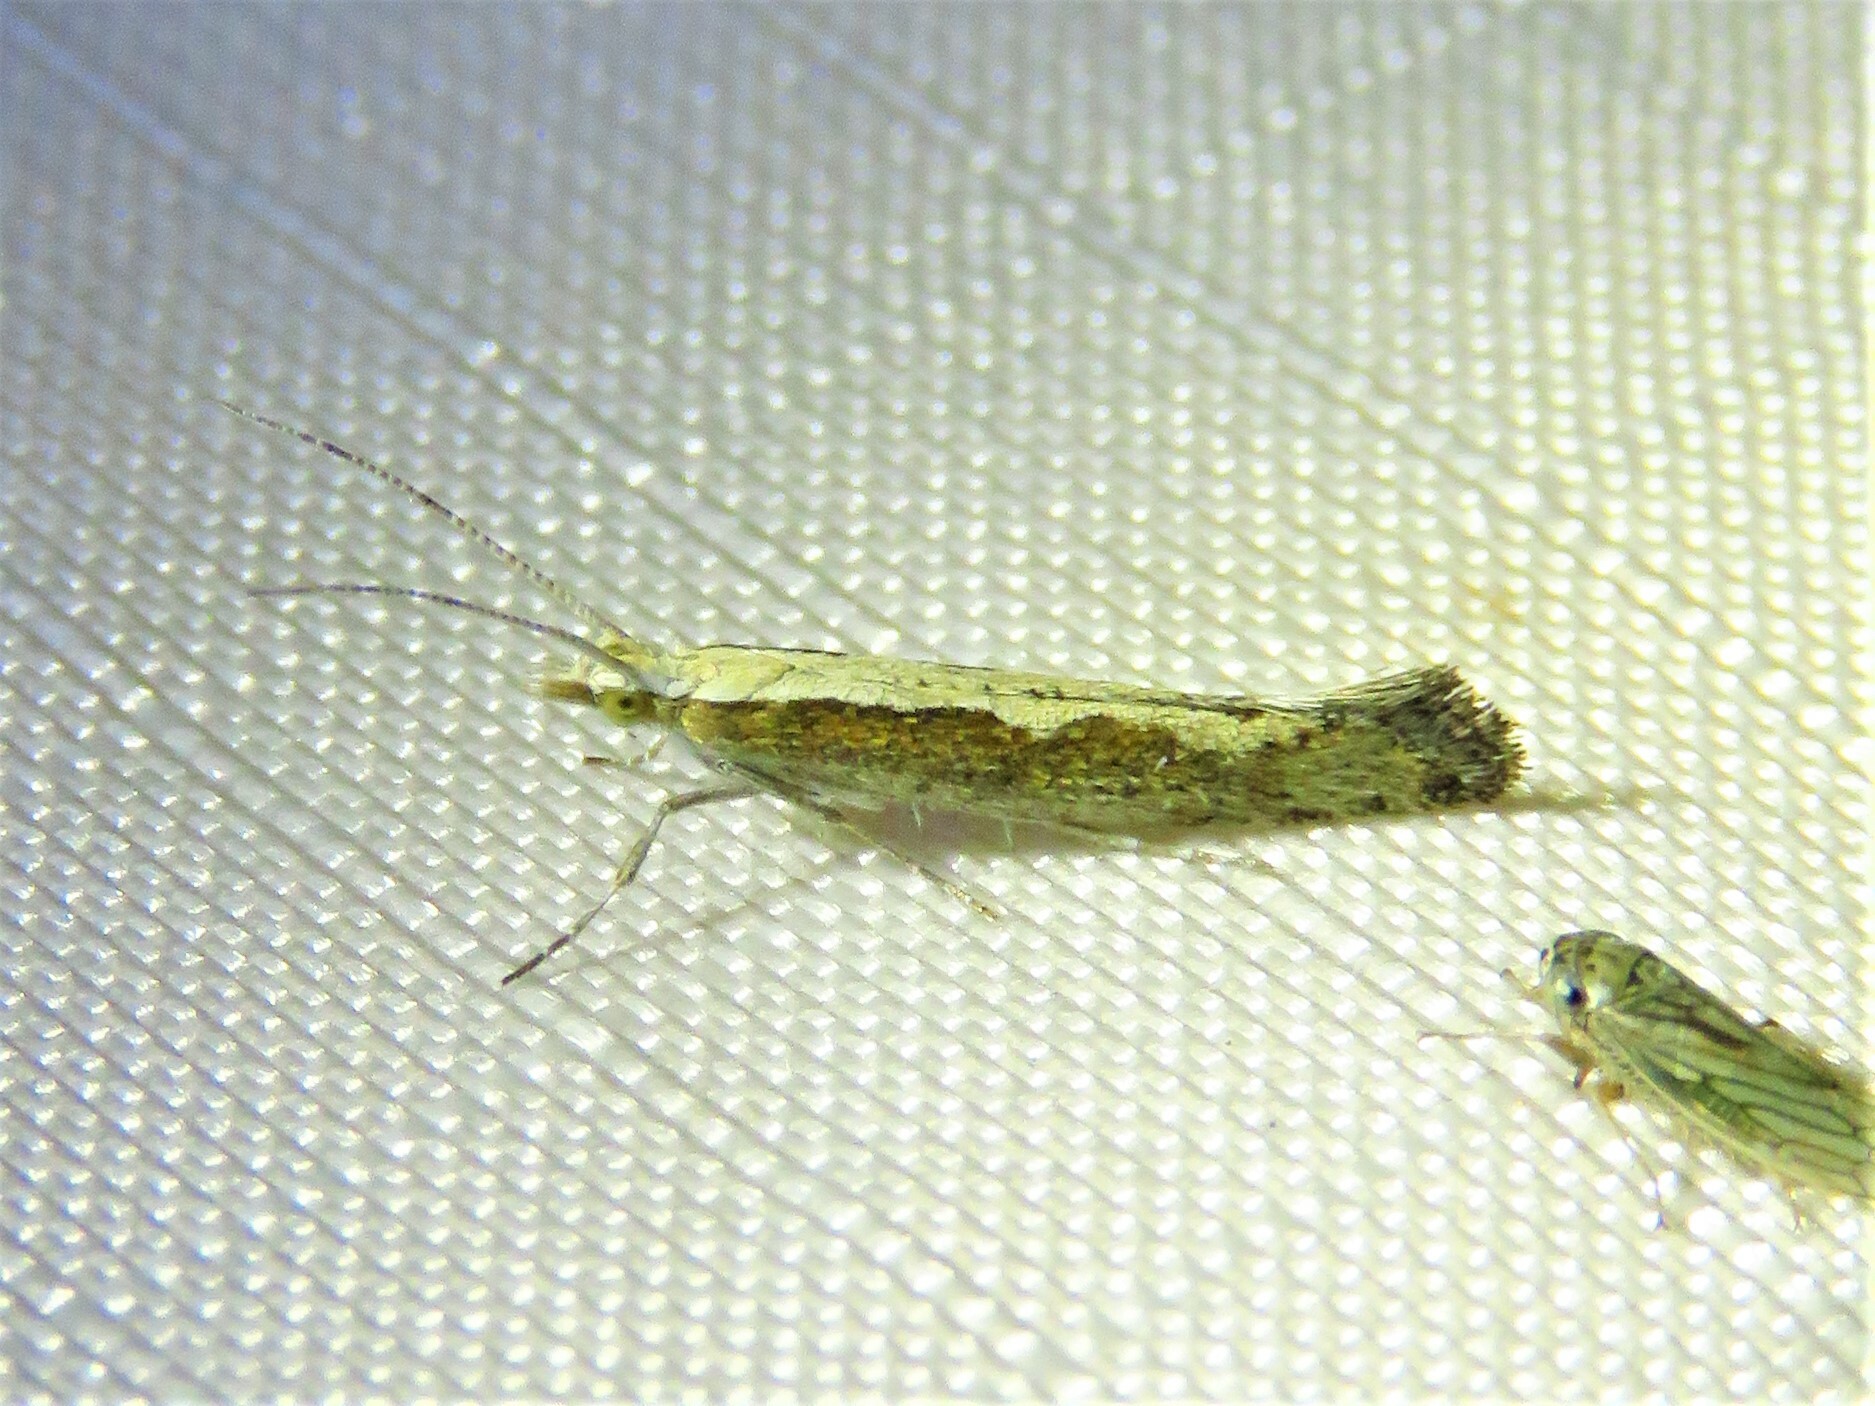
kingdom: Animalia
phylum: Arthropoda
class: Insecta
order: Lepidoptera
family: Plutellidae
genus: Plutella
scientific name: Plutella xylostella
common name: Diamond-back moth
